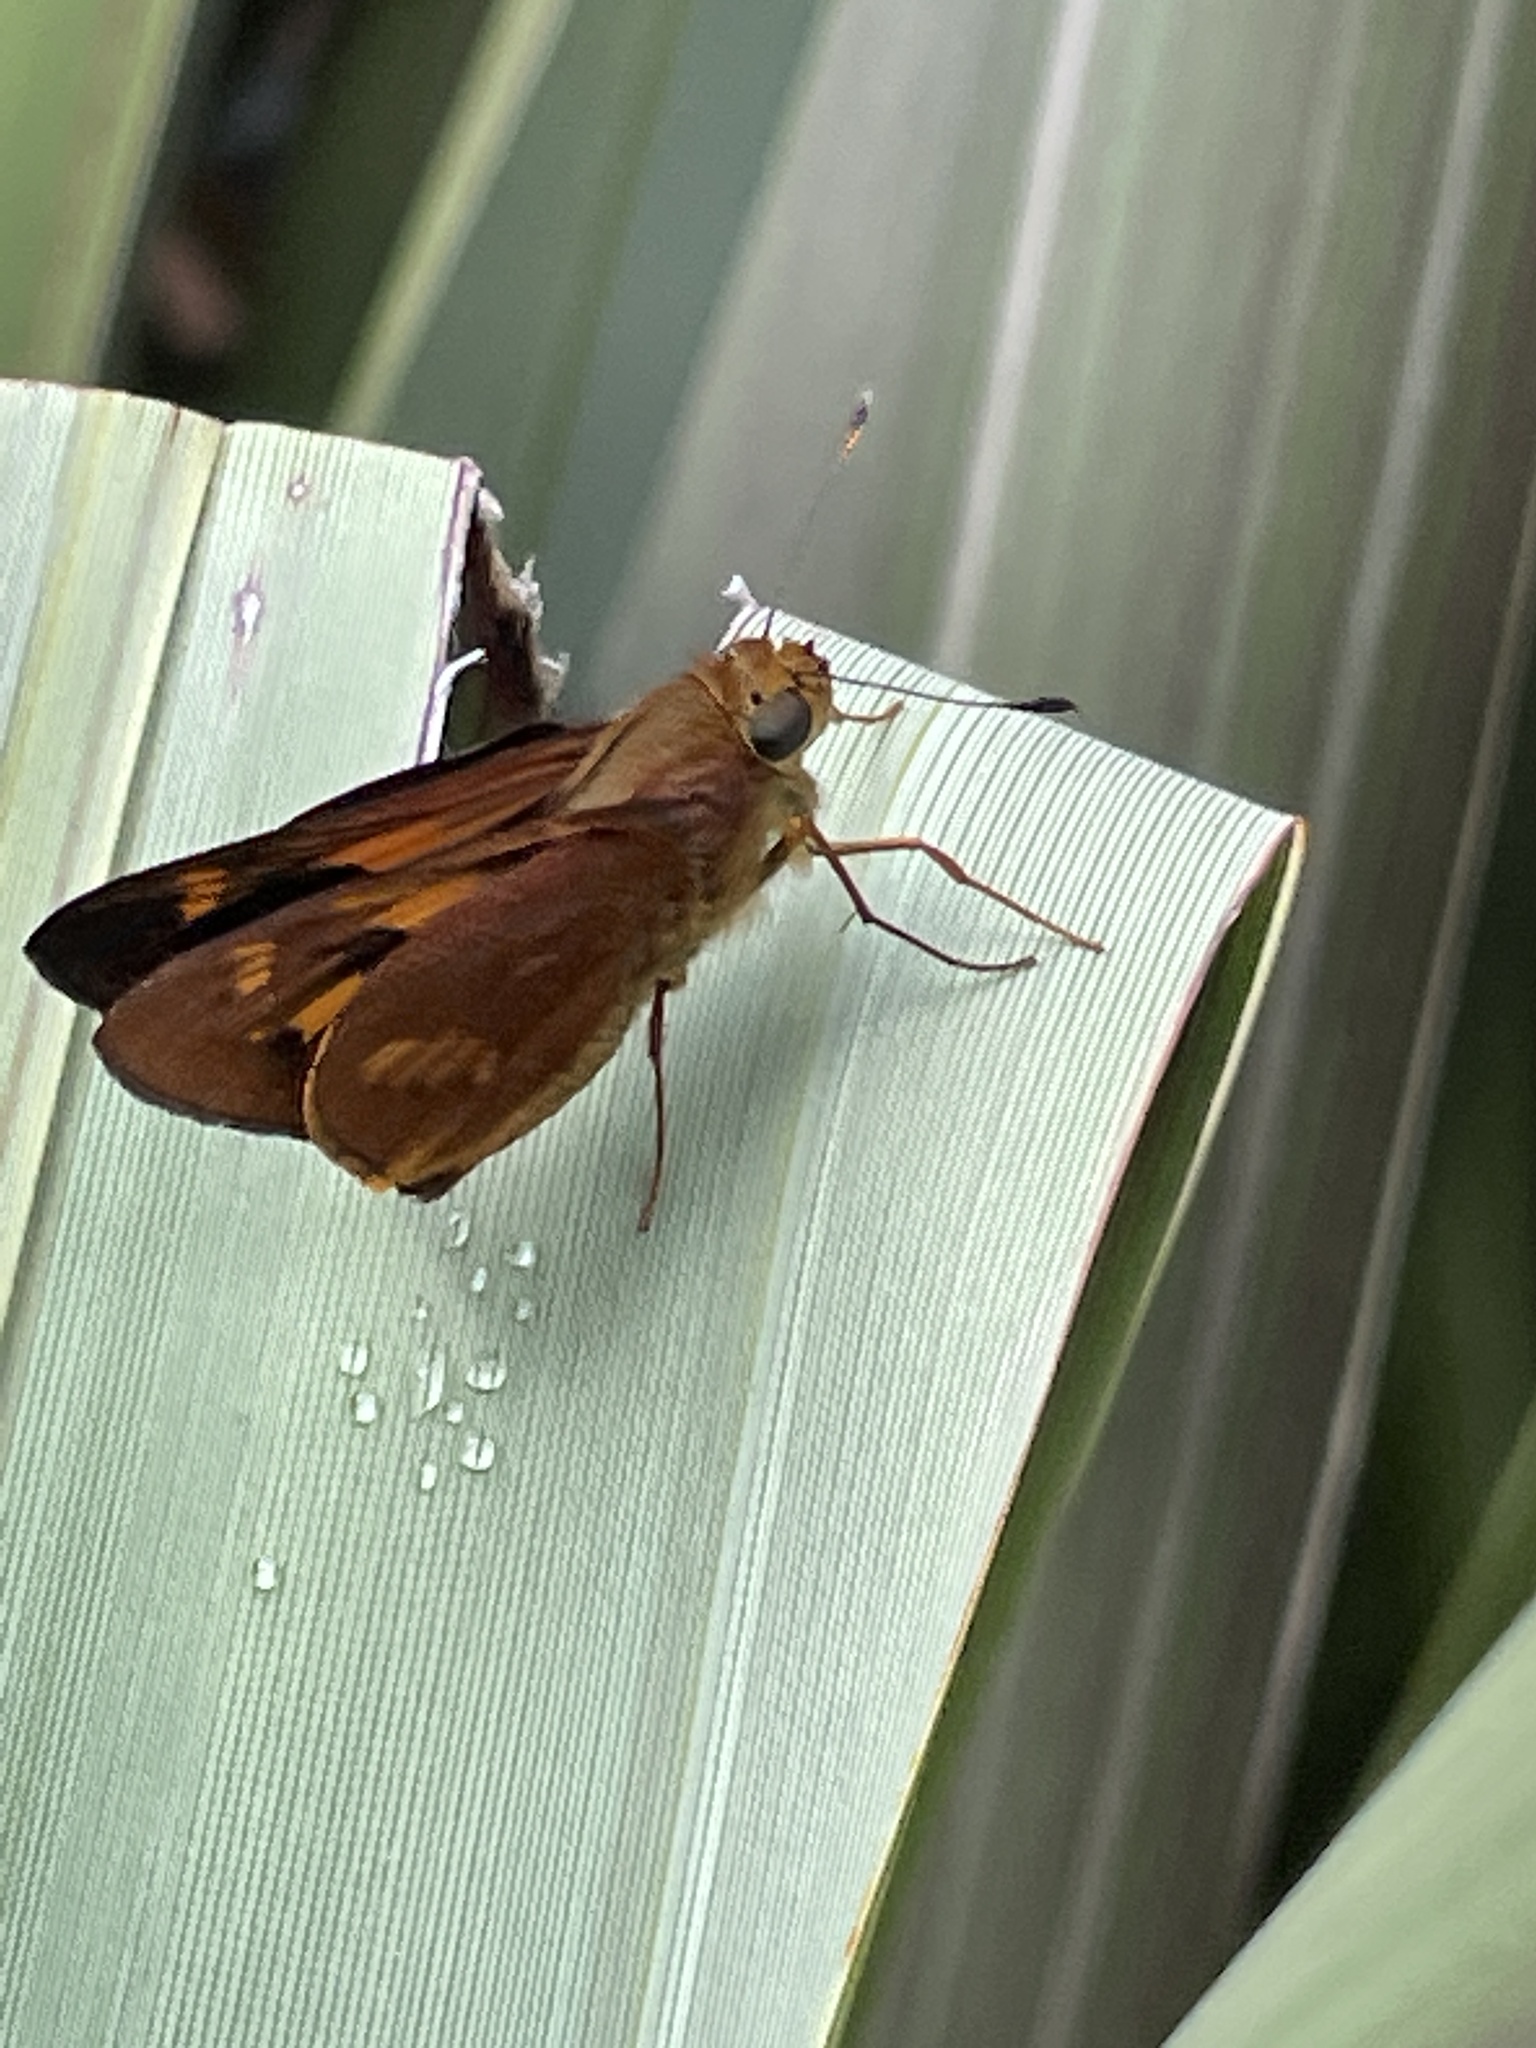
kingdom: Animalia
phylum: Arthropoda
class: Insecta
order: Lepidoptera
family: Hesperiidae
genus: Cephrenes
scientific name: Cephrenes augiades
